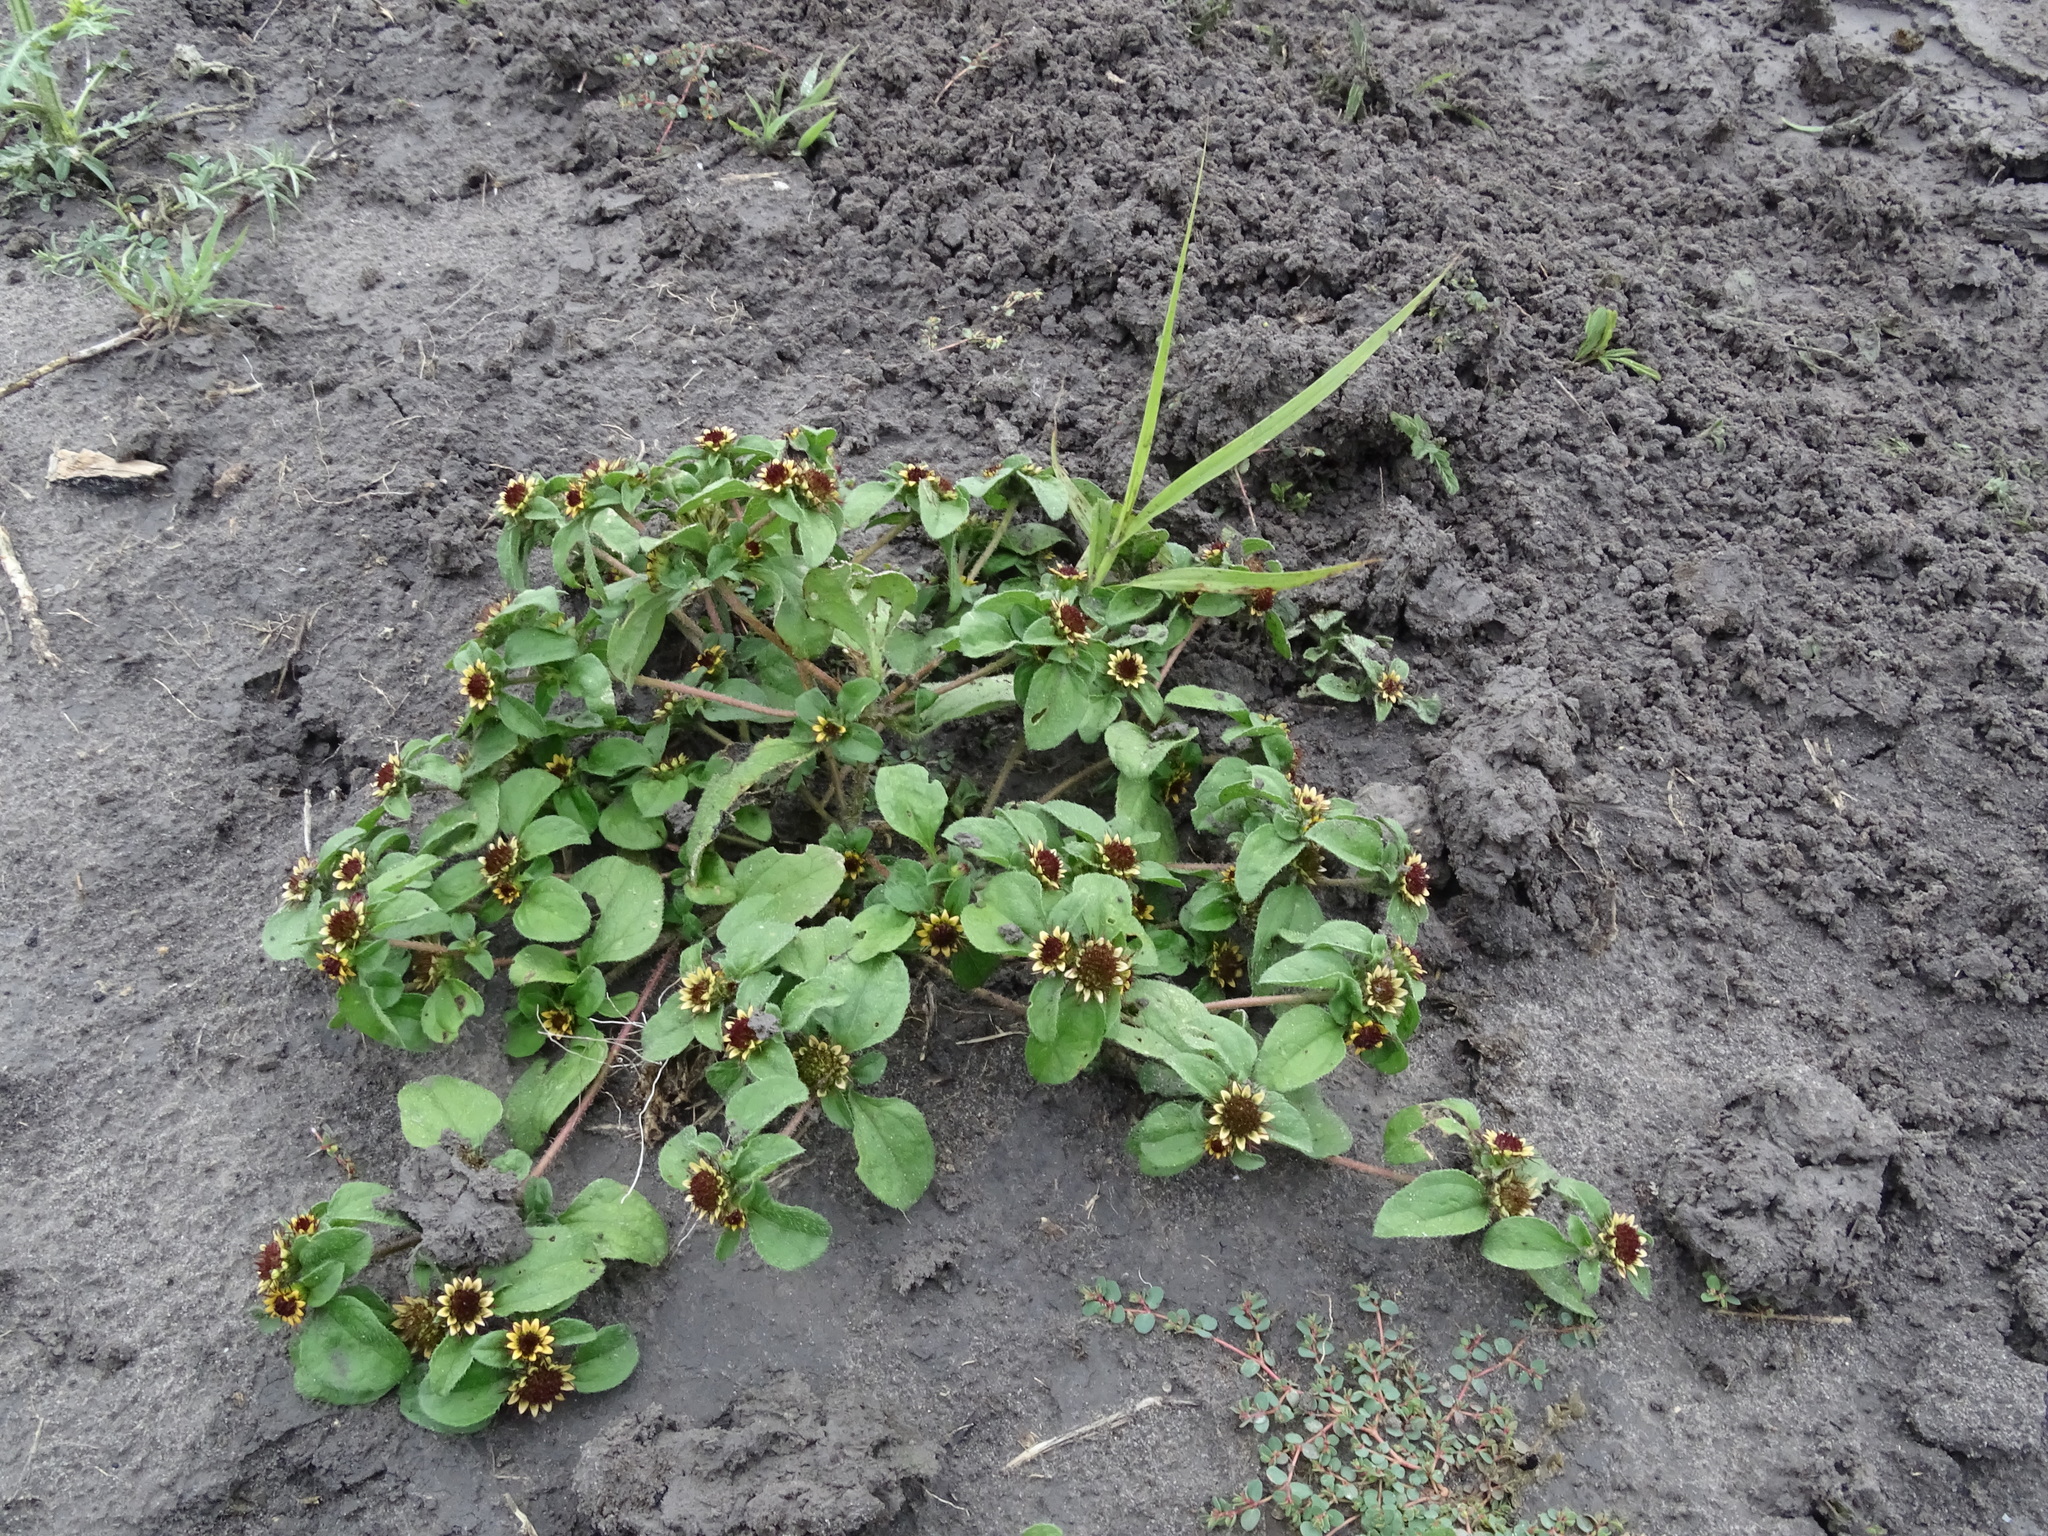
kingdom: Plantae
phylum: Tracheophyta
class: Magnoliopsida
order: Asterales
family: Asteraceae
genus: Sanvitalia
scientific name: Sanvitalia ocymoides
